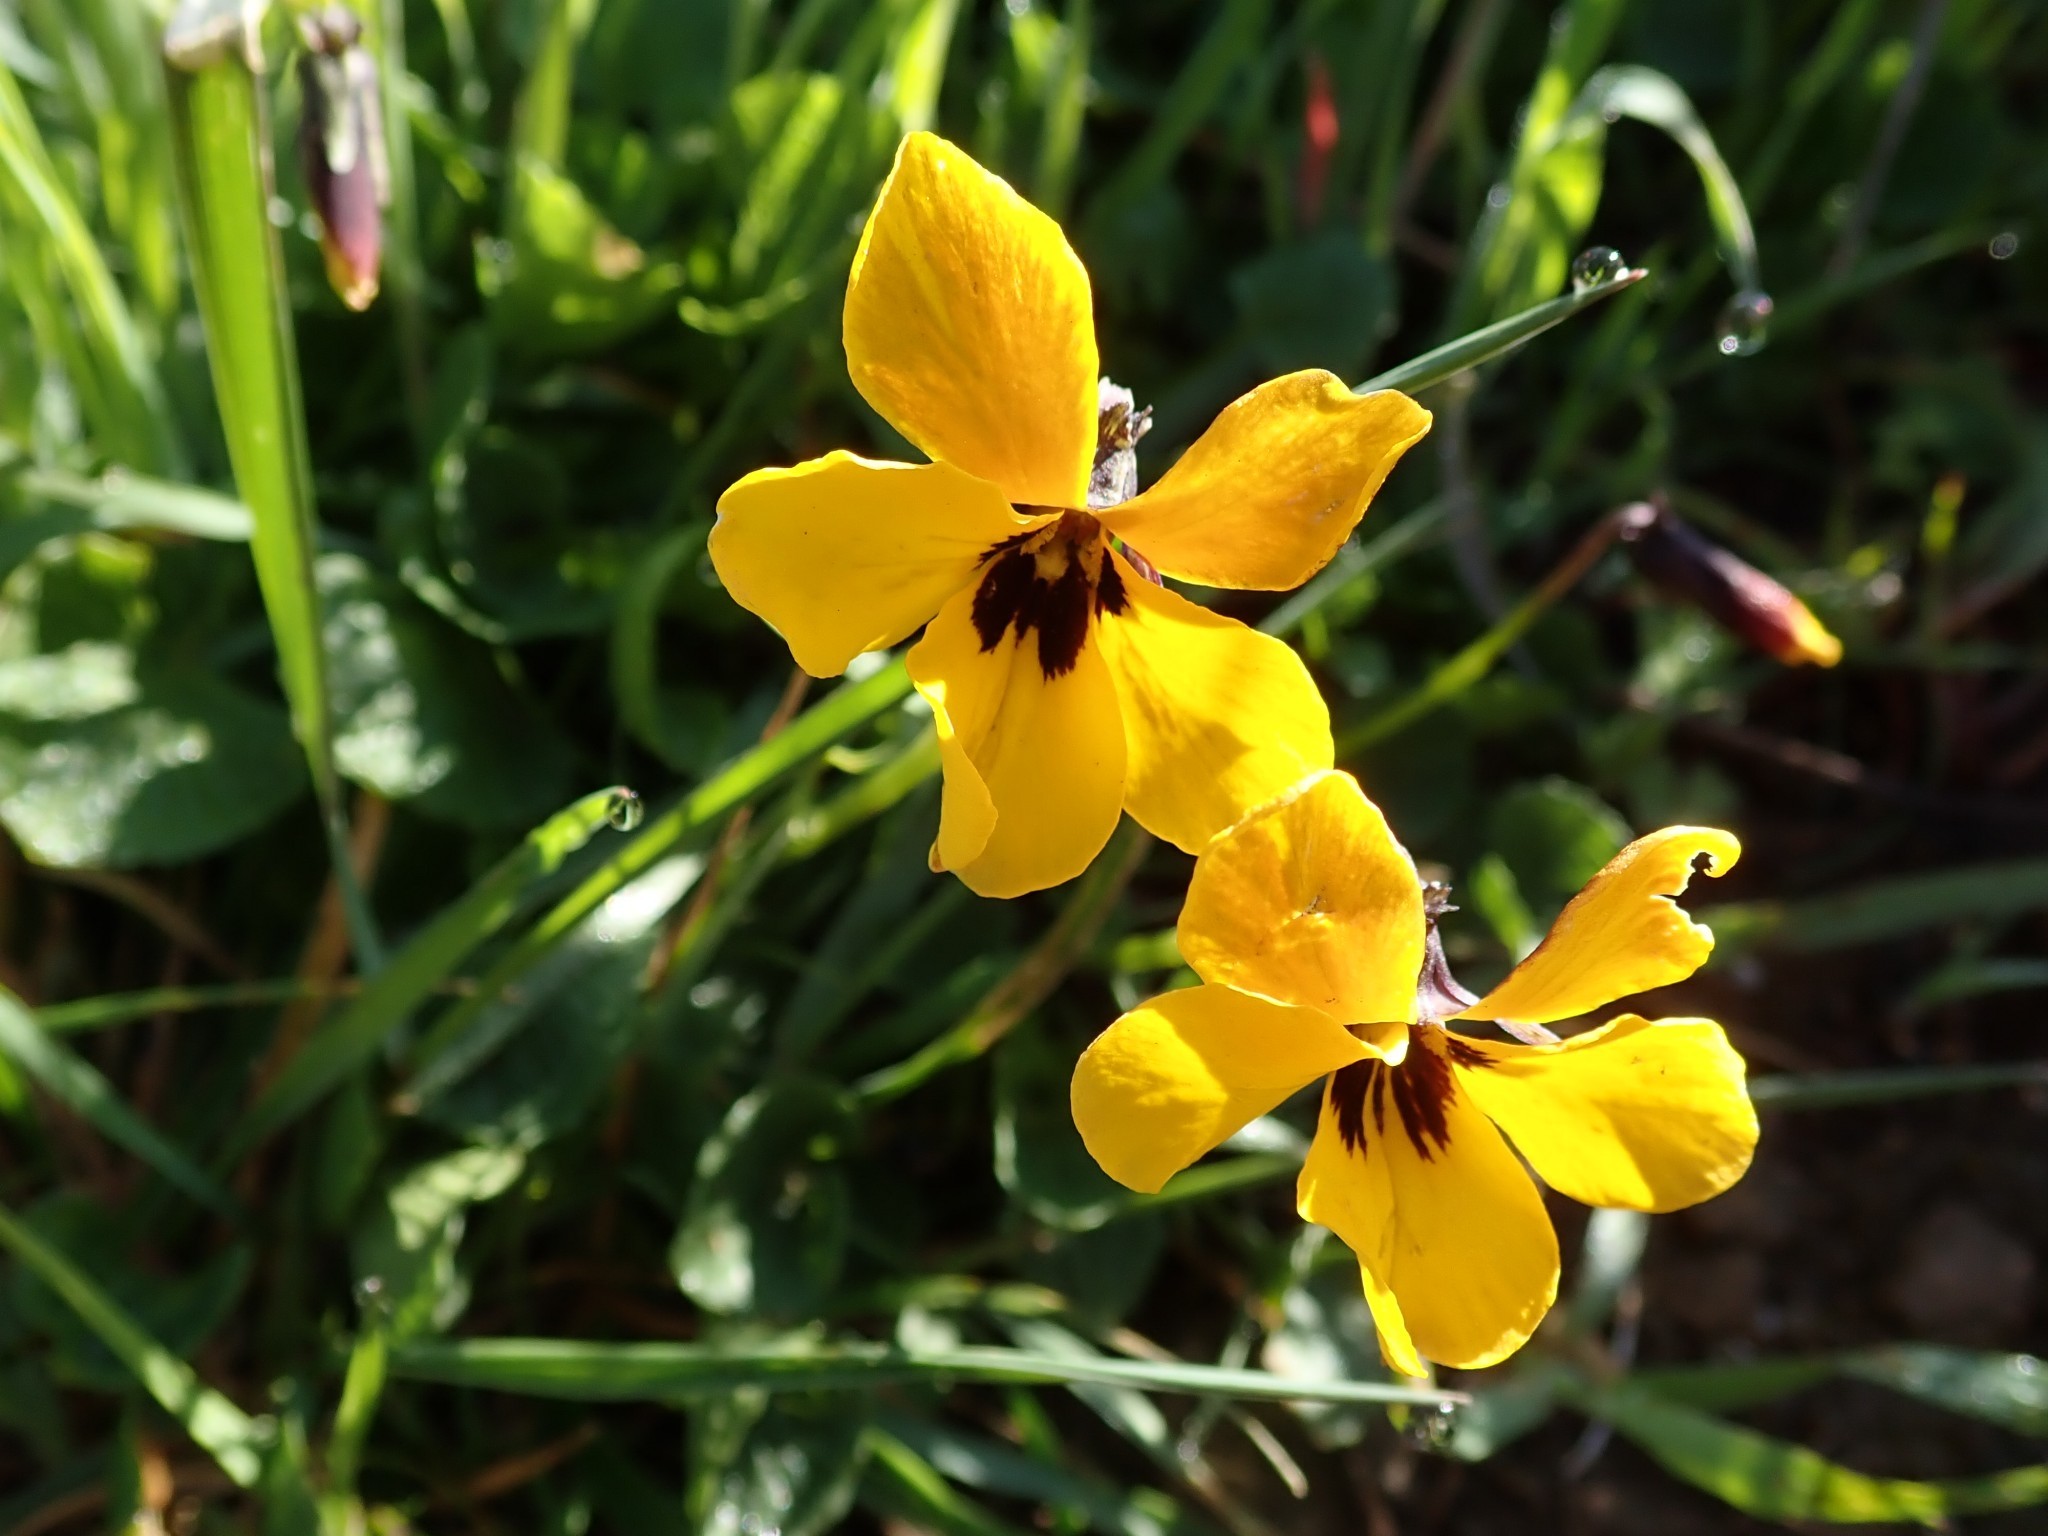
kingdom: Plantae
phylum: Tracheophyta
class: Magnoliopsida
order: Malpighiales
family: Violaceae
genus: Viola
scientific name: Viola pedunculata
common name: California golden violet
